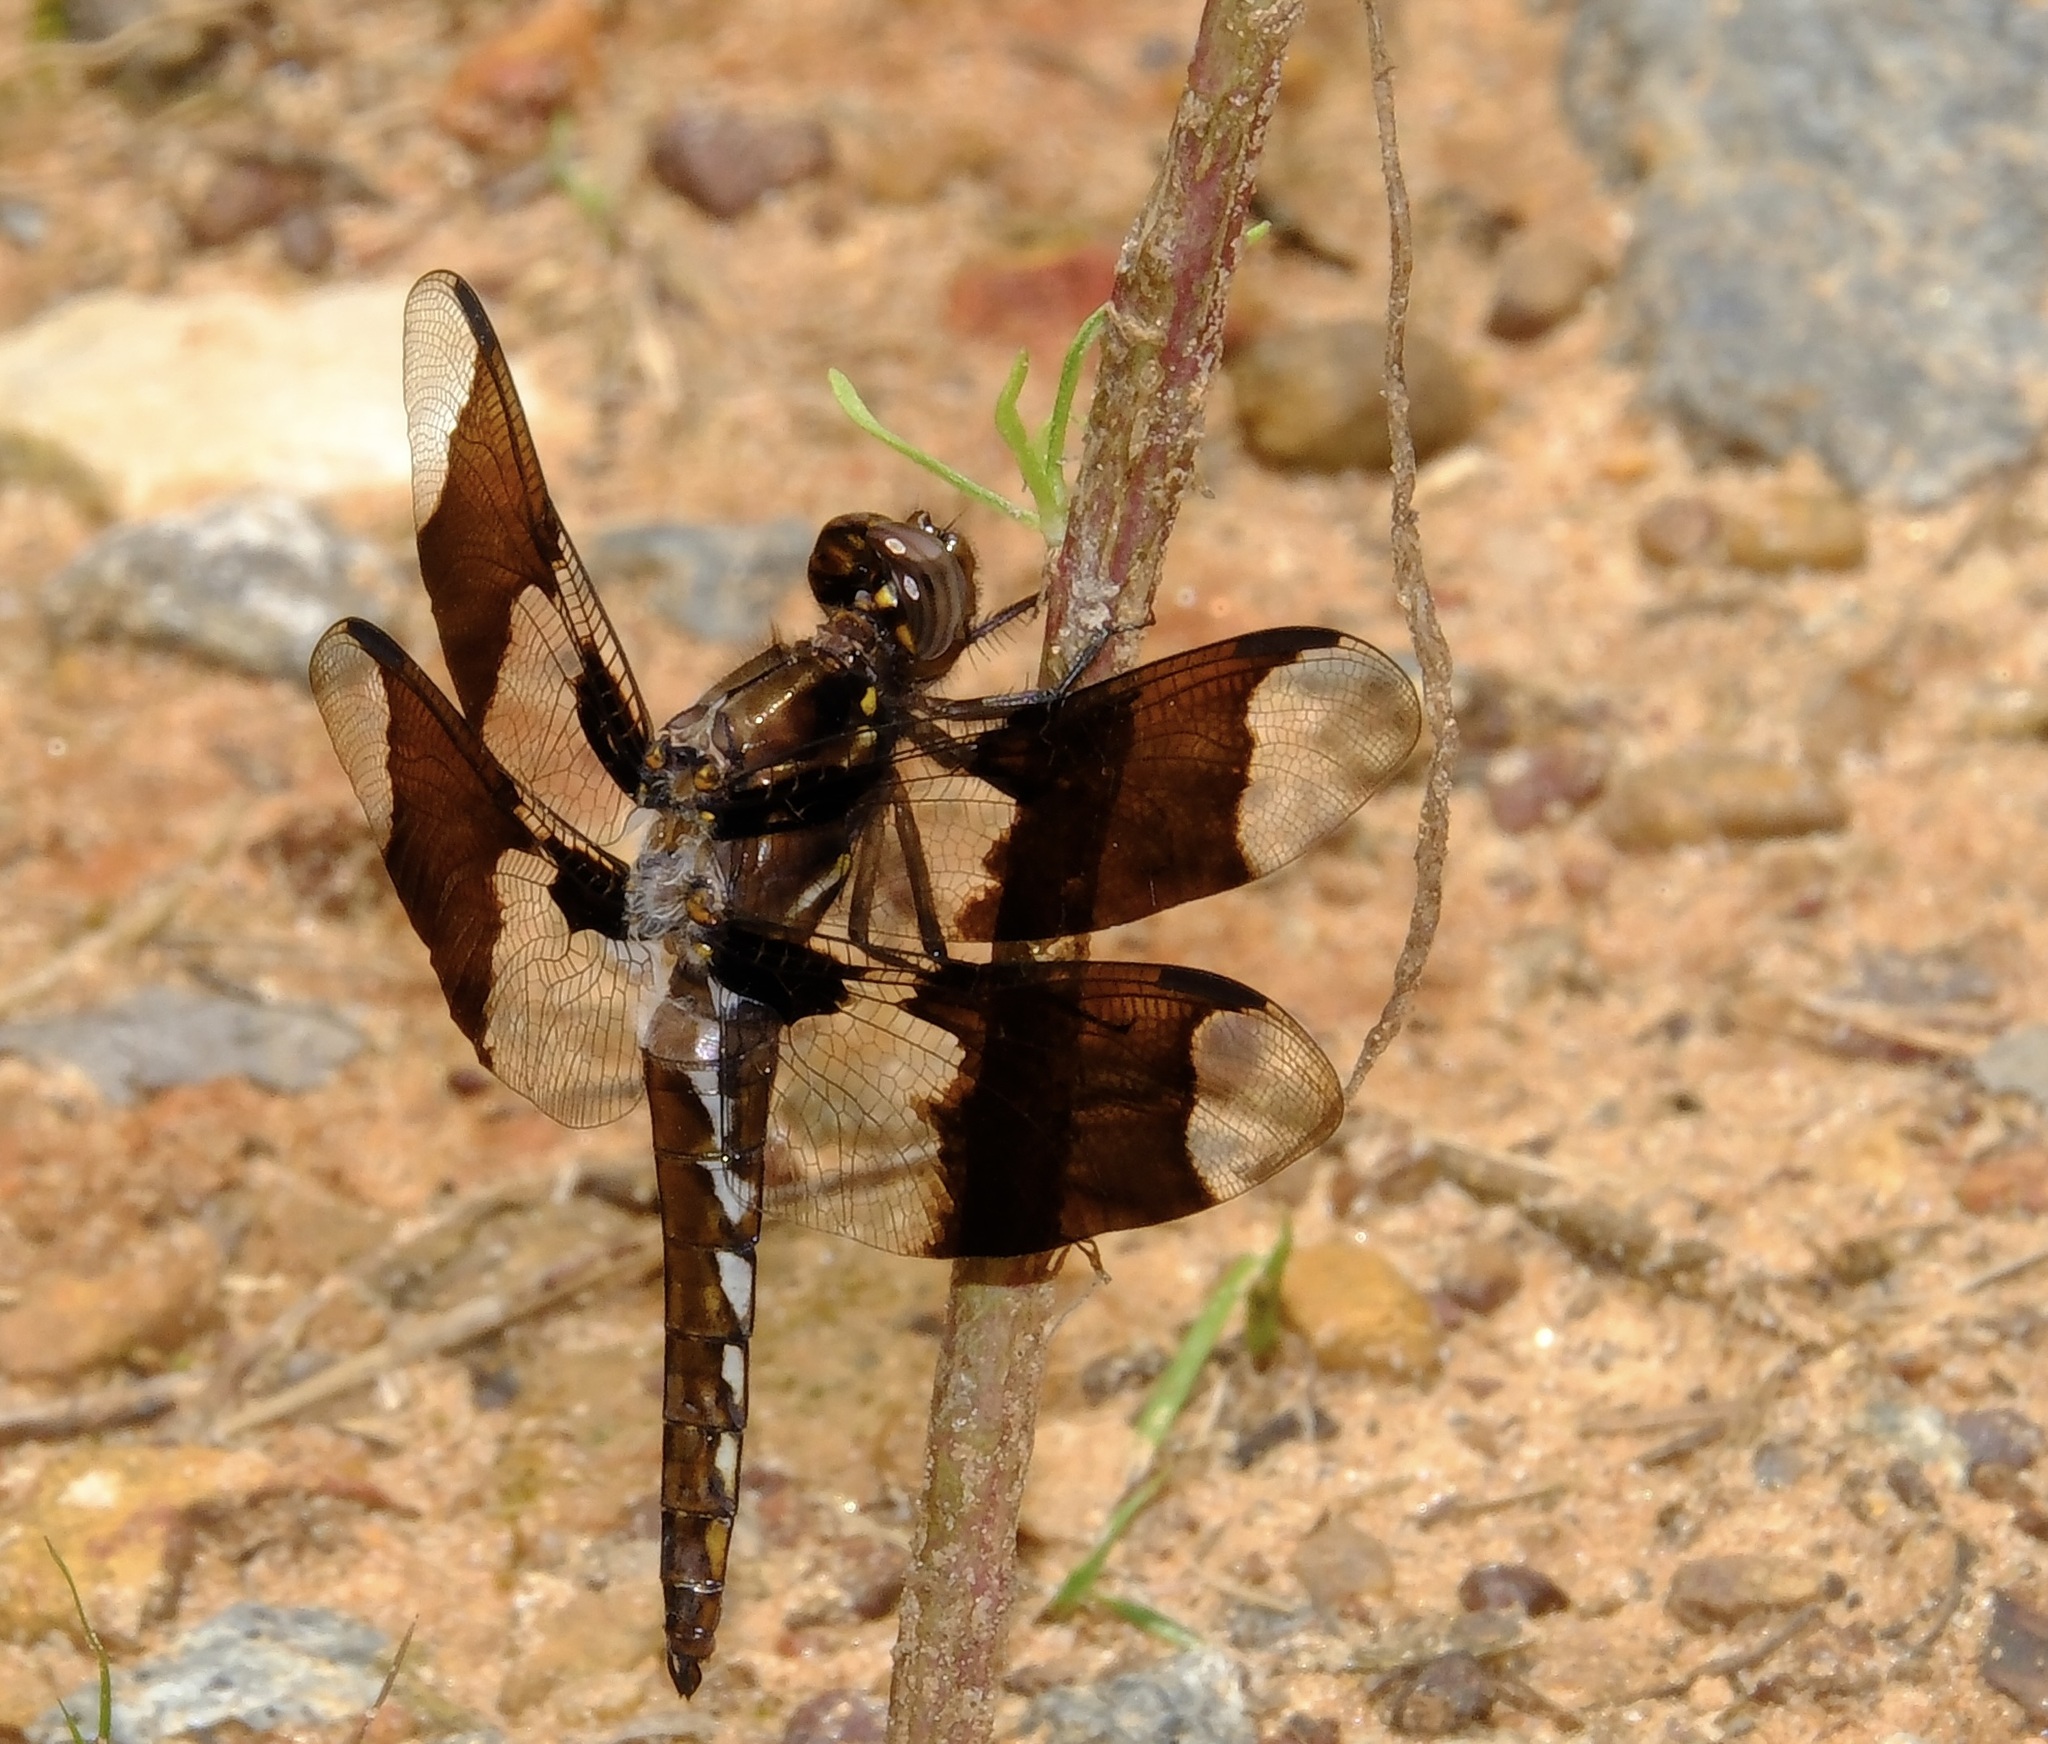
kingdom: Animalia
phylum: Arthropoda
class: Insecta
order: Odonata
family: Libellulidae
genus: Plathemis
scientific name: Plathemis lydia
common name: Common whitetail
